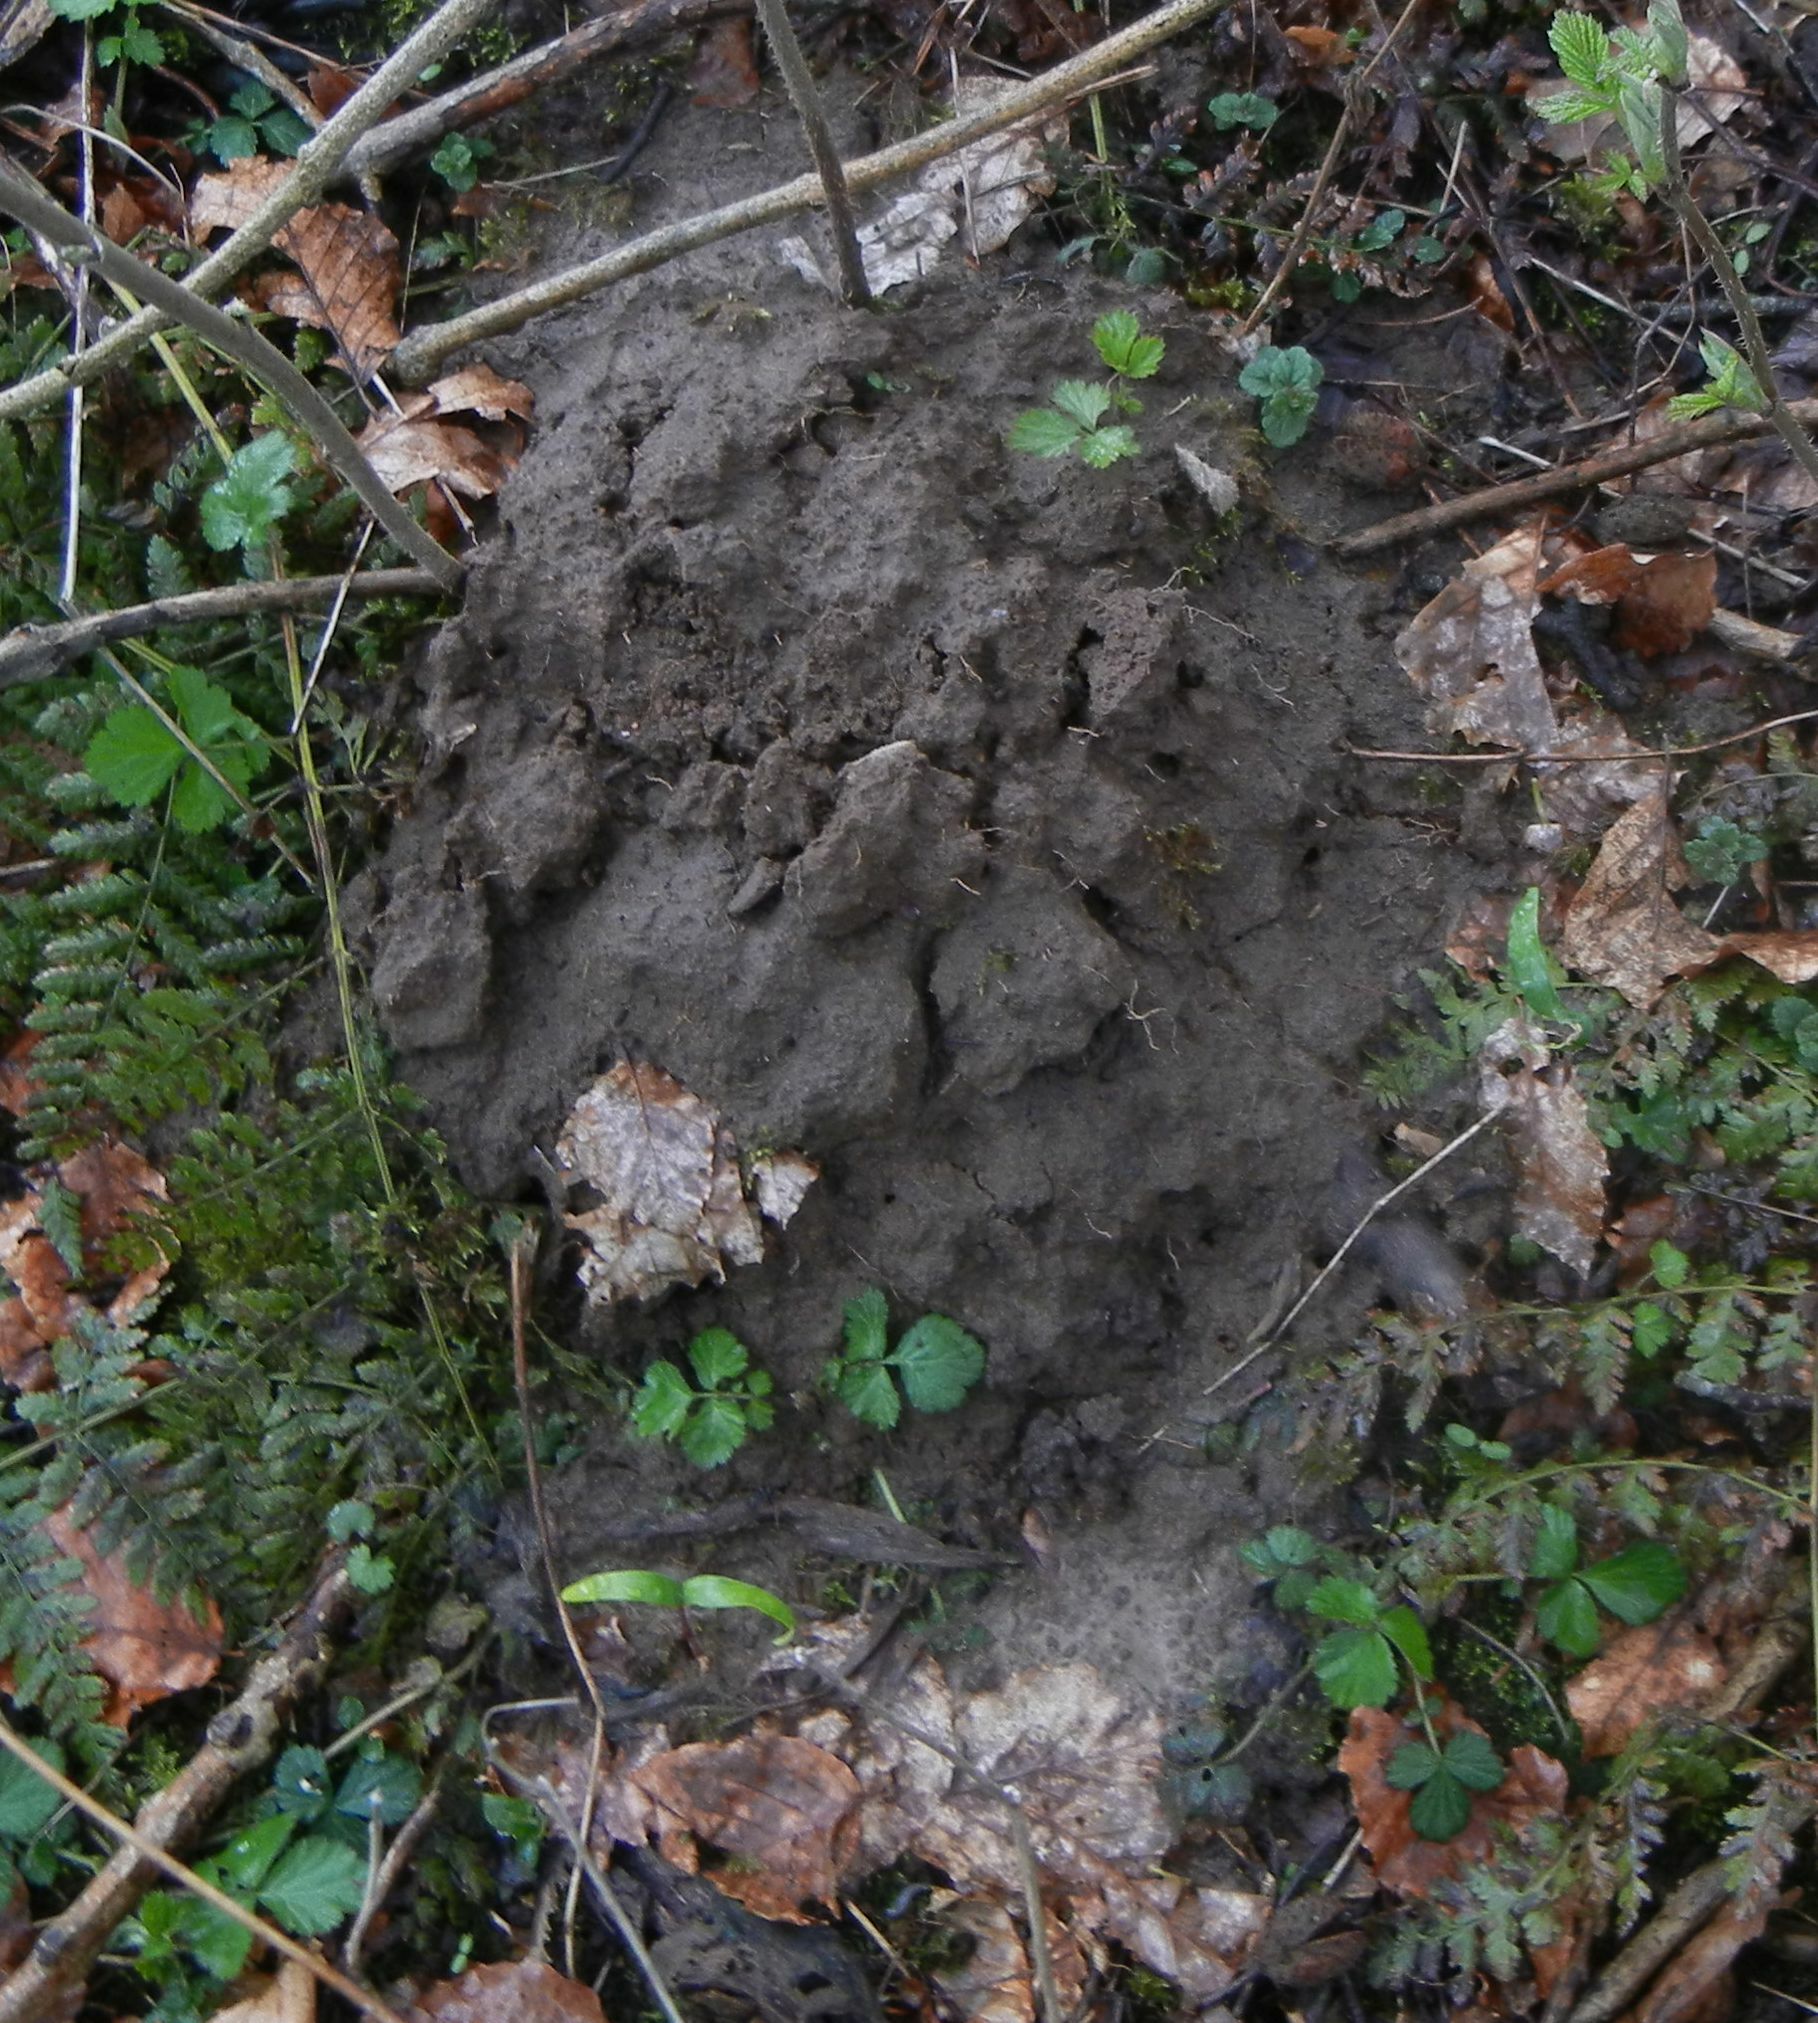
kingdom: Animalia
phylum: Chordata
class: Mammalia
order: Soricomorpha
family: Talpidae
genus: Talpa
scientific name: Talpa europaea
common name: European mole
